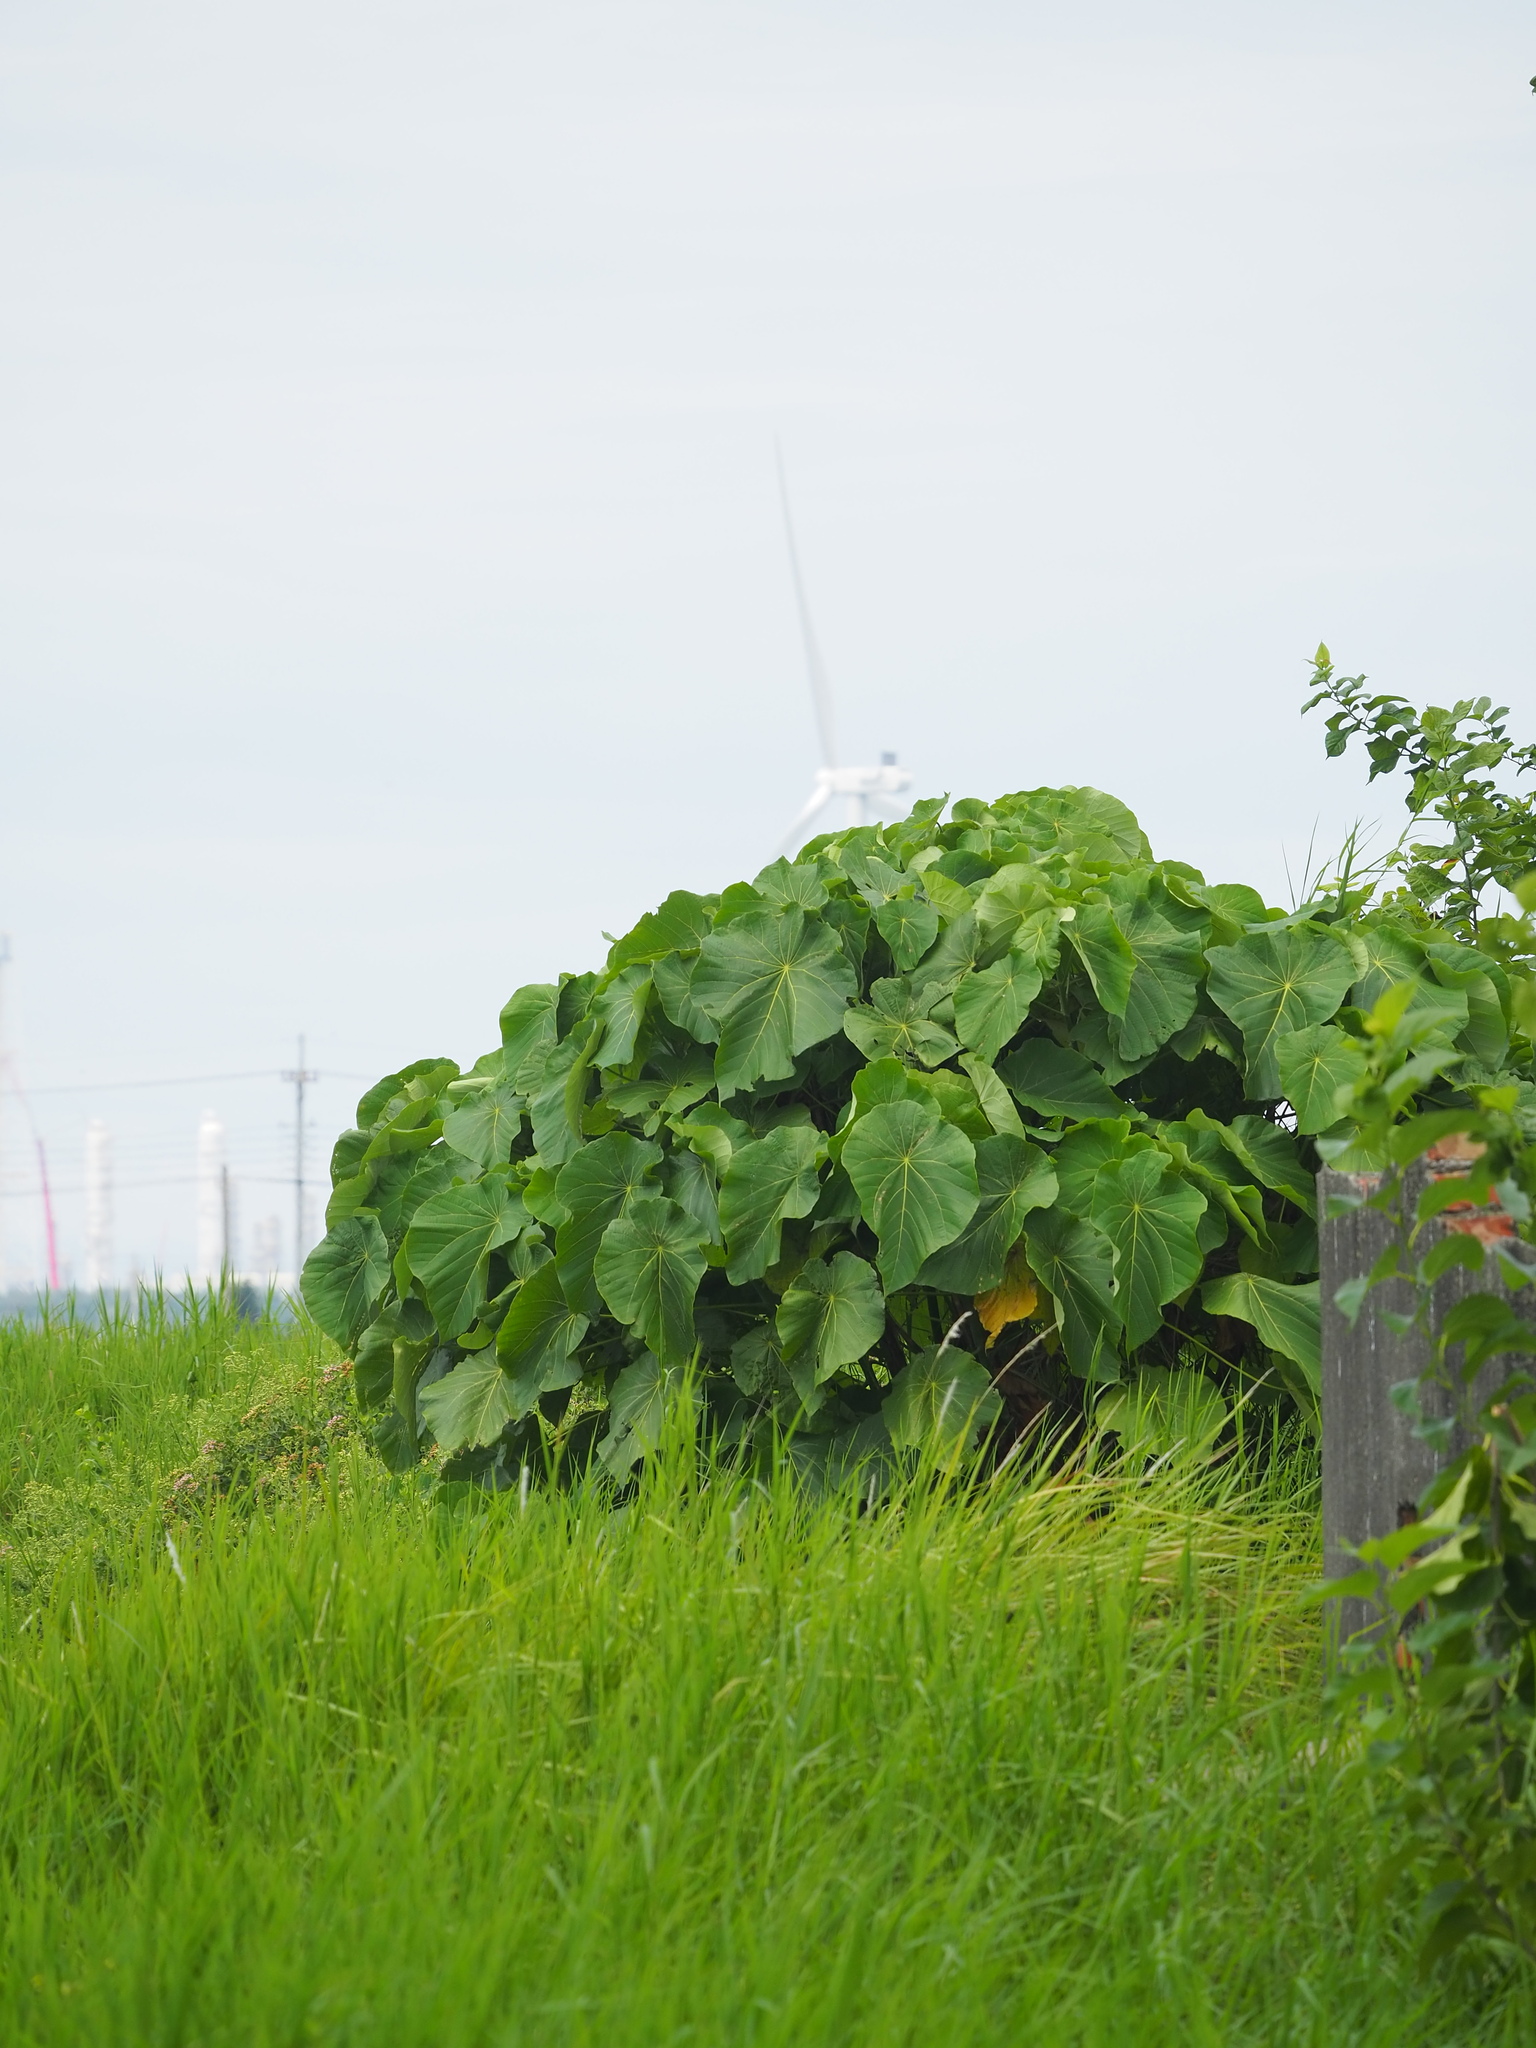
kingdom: Plantae
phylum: Tracheophyta
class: Magnoliopsida
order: Malpighiales
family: Euphorbiaceae
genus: Macaranga
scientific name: Macaranga tanarius
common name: Parasol leaf tree
